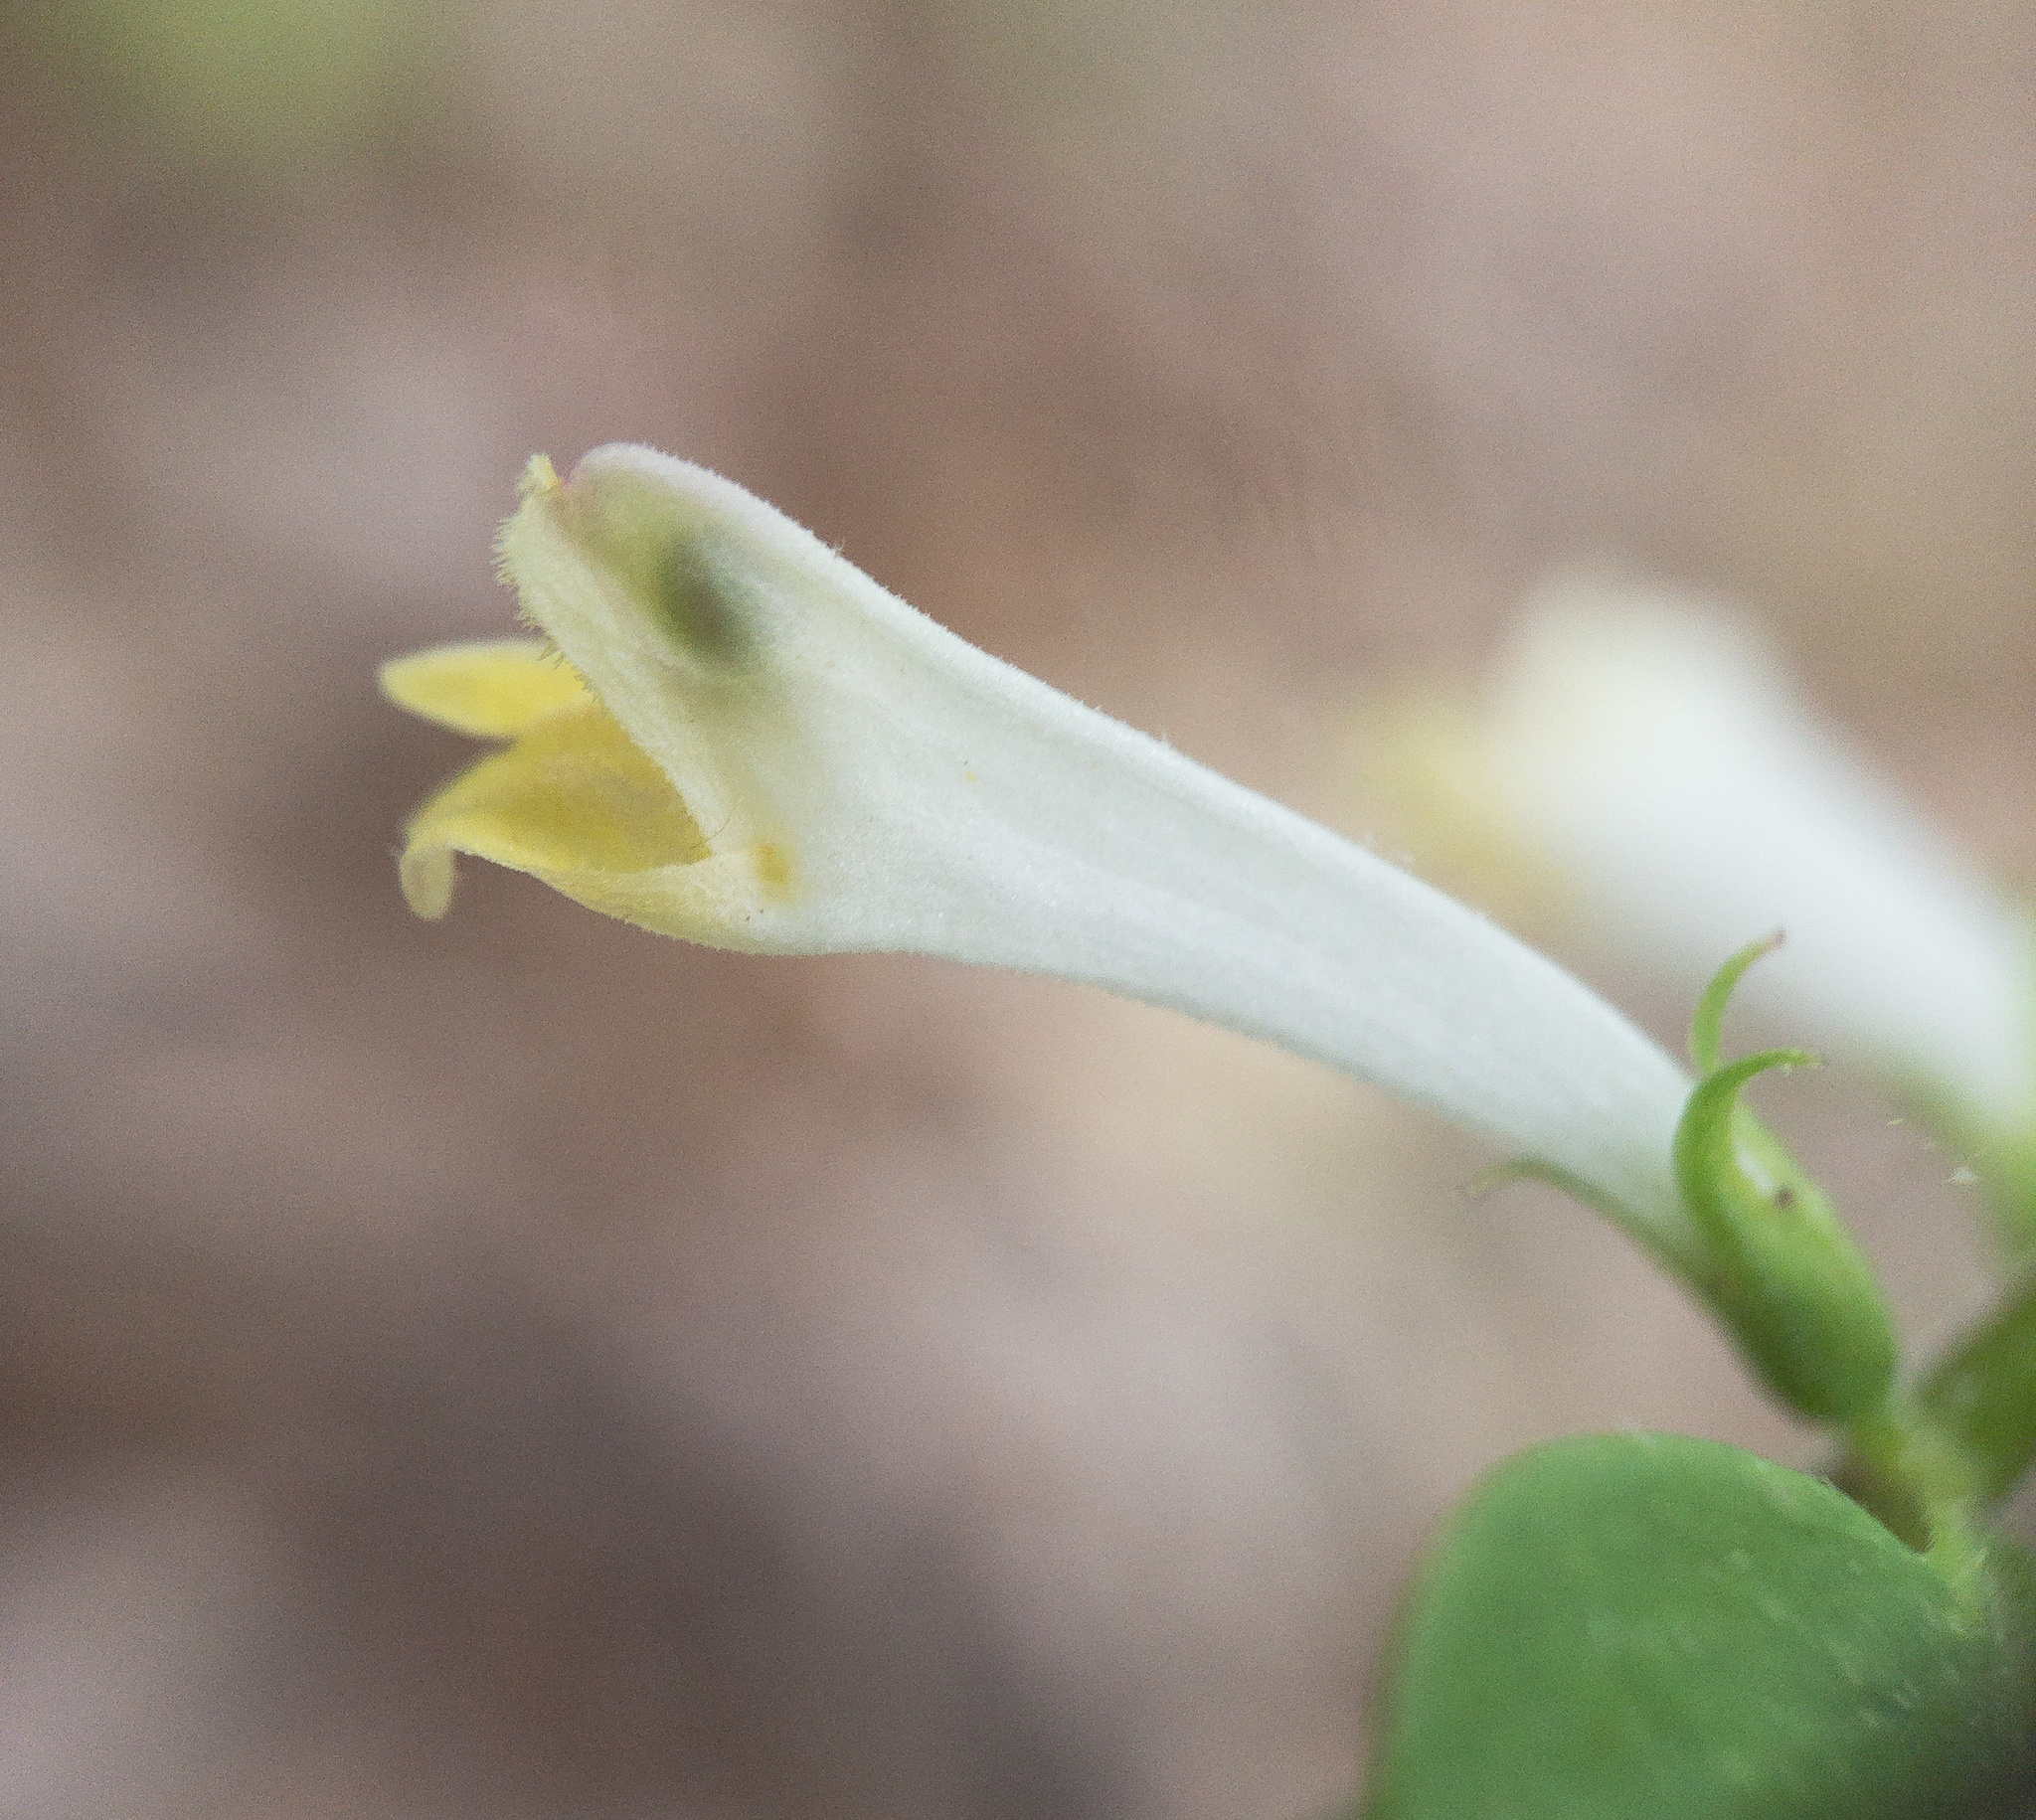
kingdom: Plantae
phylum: Tracheophyta
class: Magnoliopsida
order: Lamiales
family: Orobanchaceae
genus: Melampyrum
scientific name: Melampyrum lineare
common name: American cow-wheat
